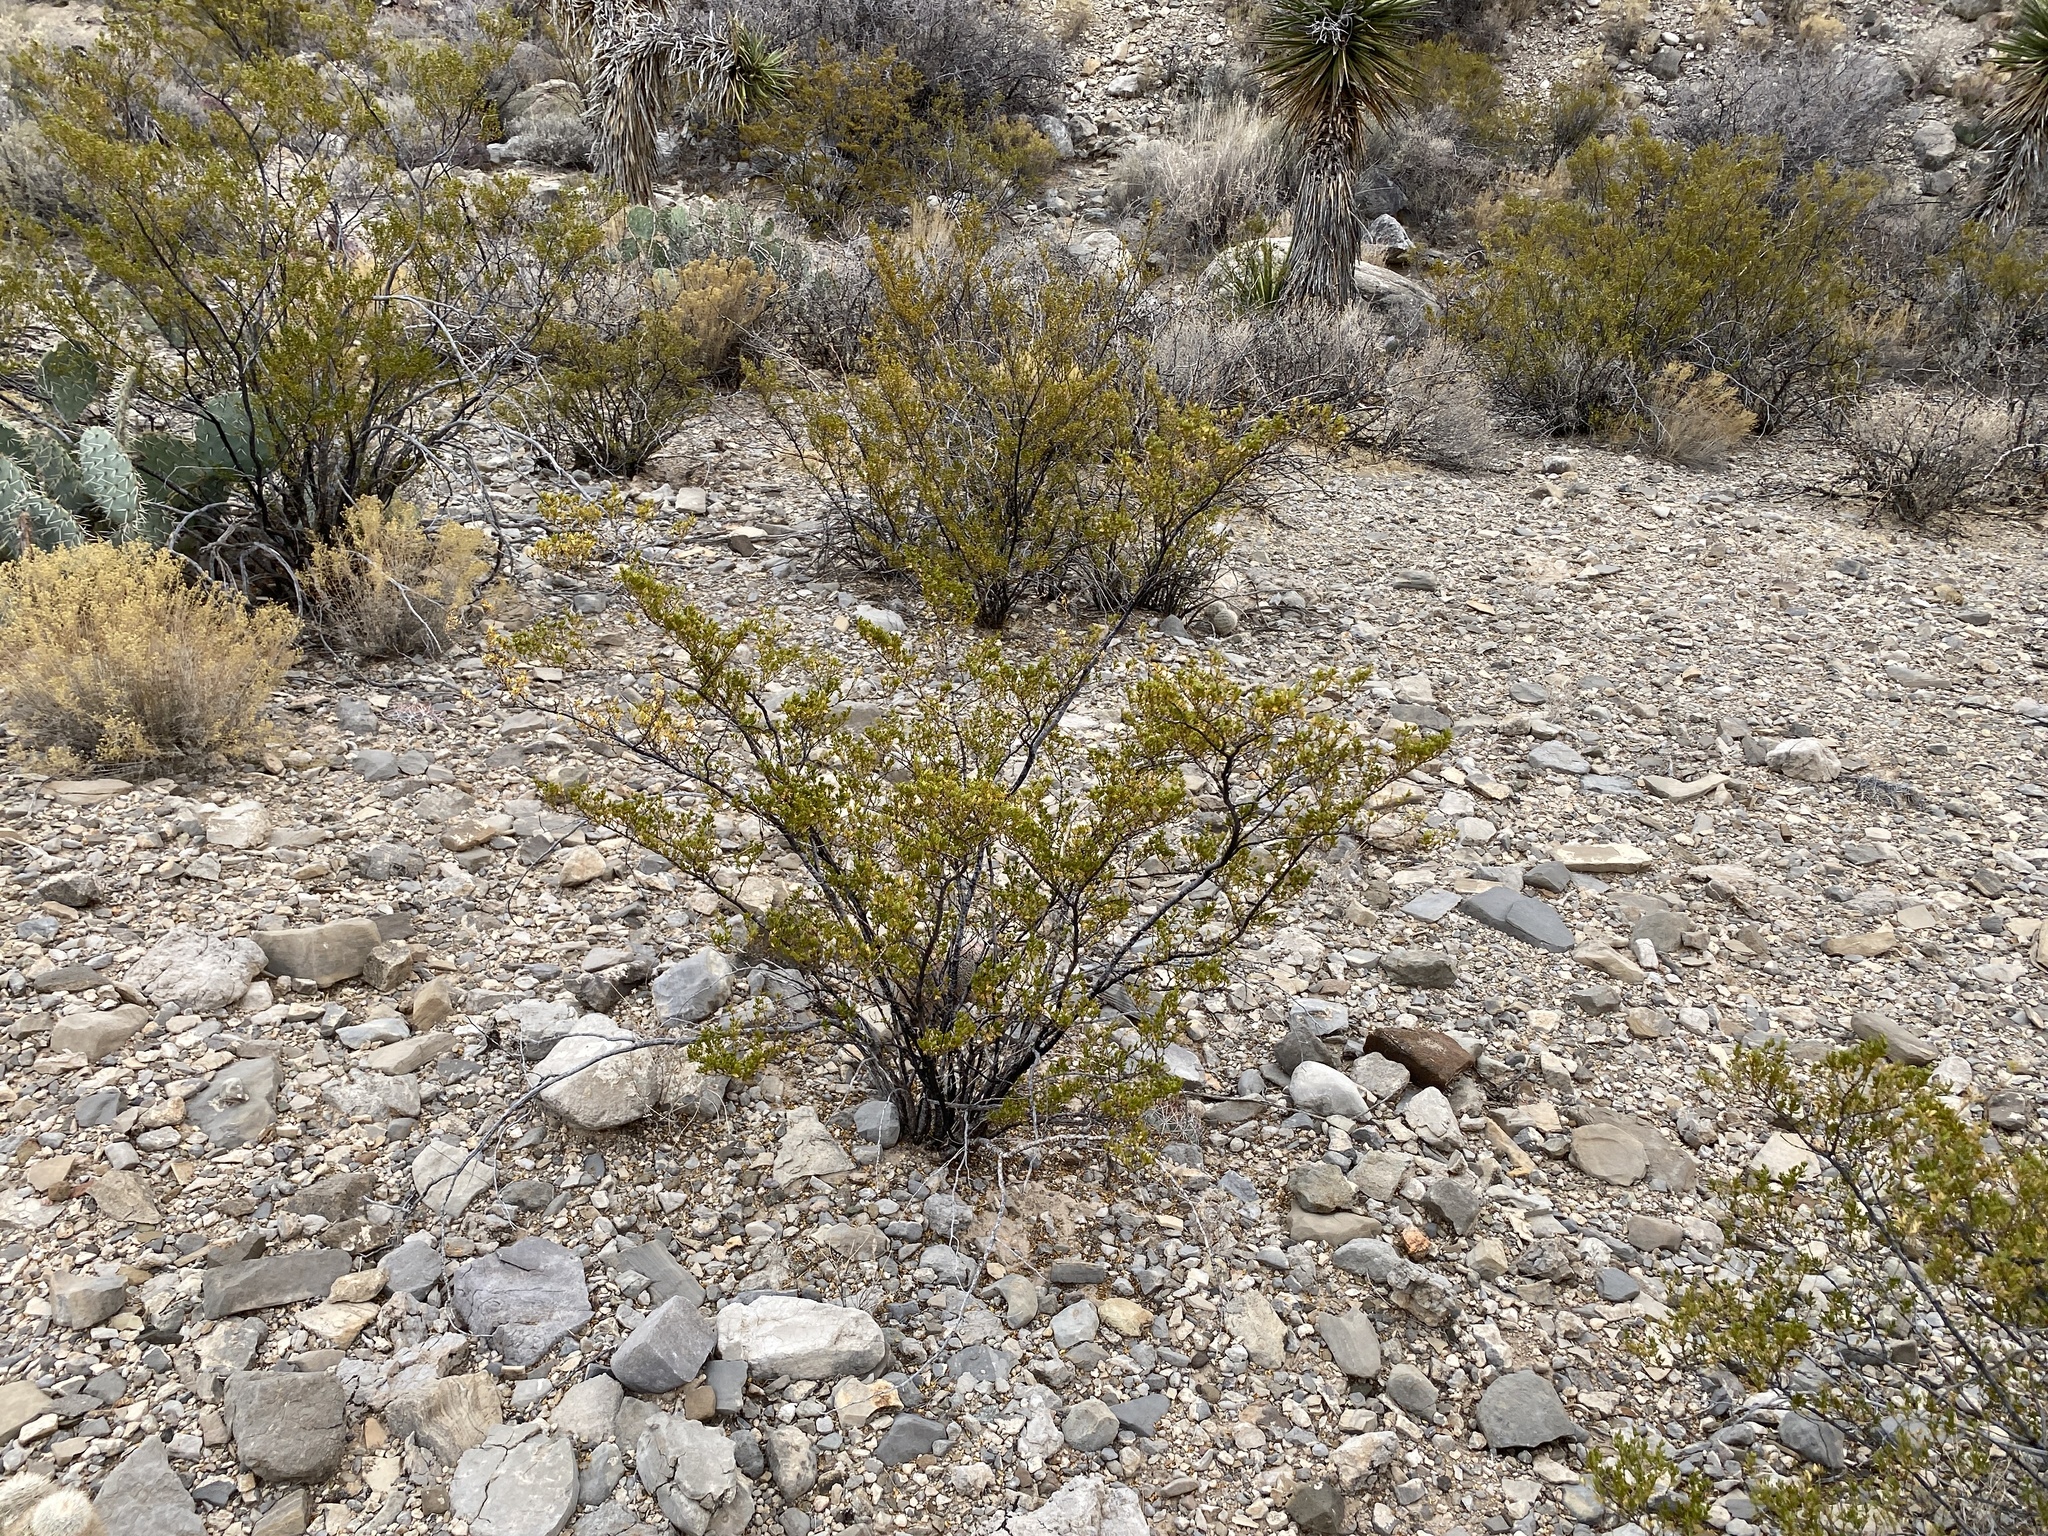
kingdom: Plantae
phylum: Tracheophyta
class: Magnoliopsida
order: Zygophyllales
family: Zygophyllaceae
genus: Larrea
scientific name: Larrea tridentata
